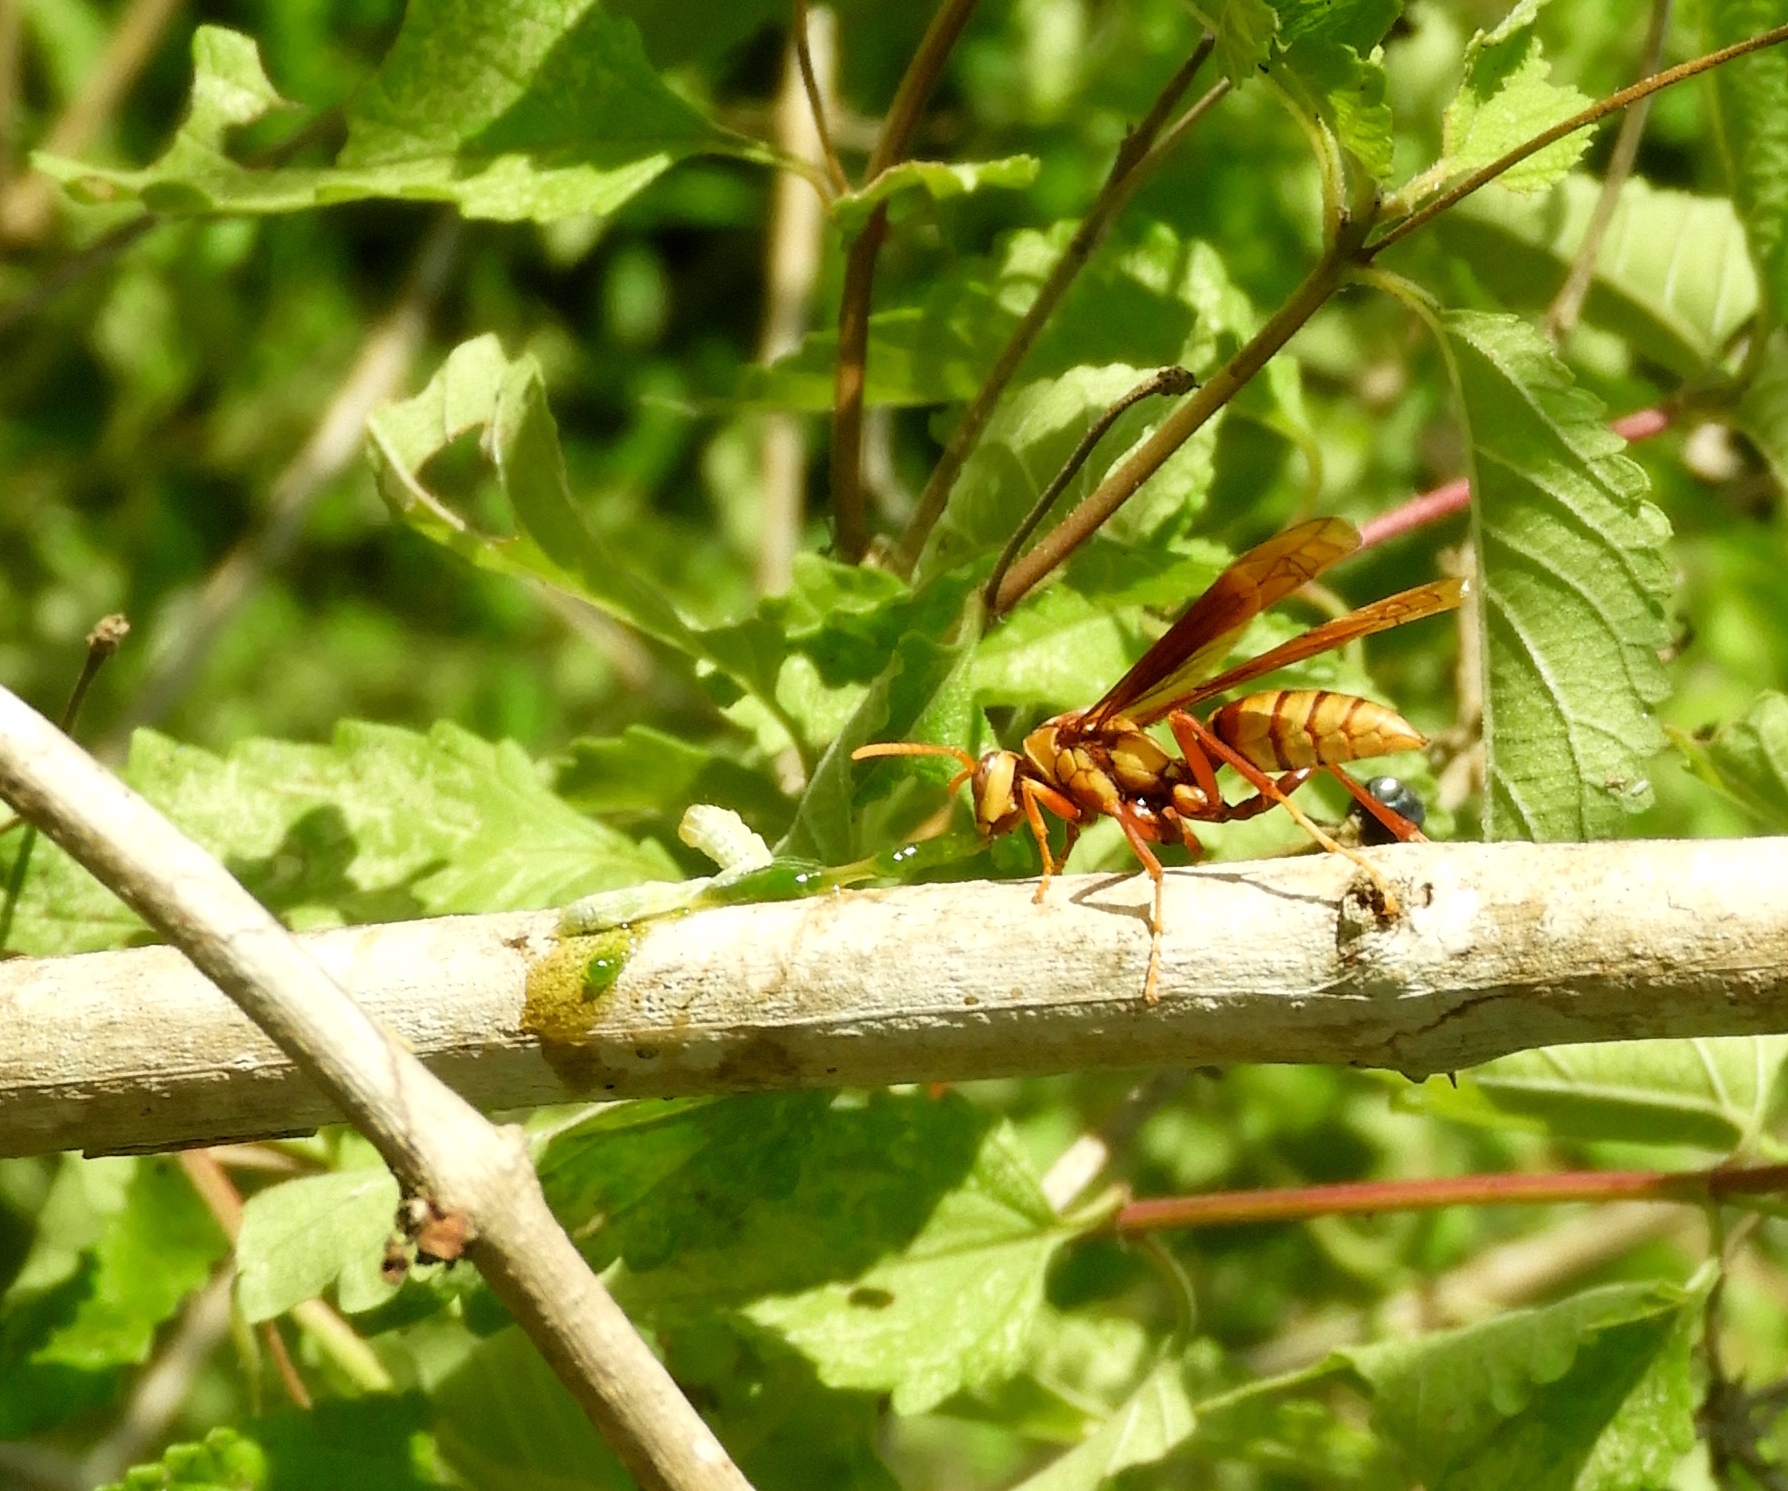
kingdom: Animalia
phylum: Arthropoda
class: Insecta
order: Hymenoptera
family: Eumenidae
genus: Polistes
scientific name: Polistes instabilis
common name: Unstable paper wasp
